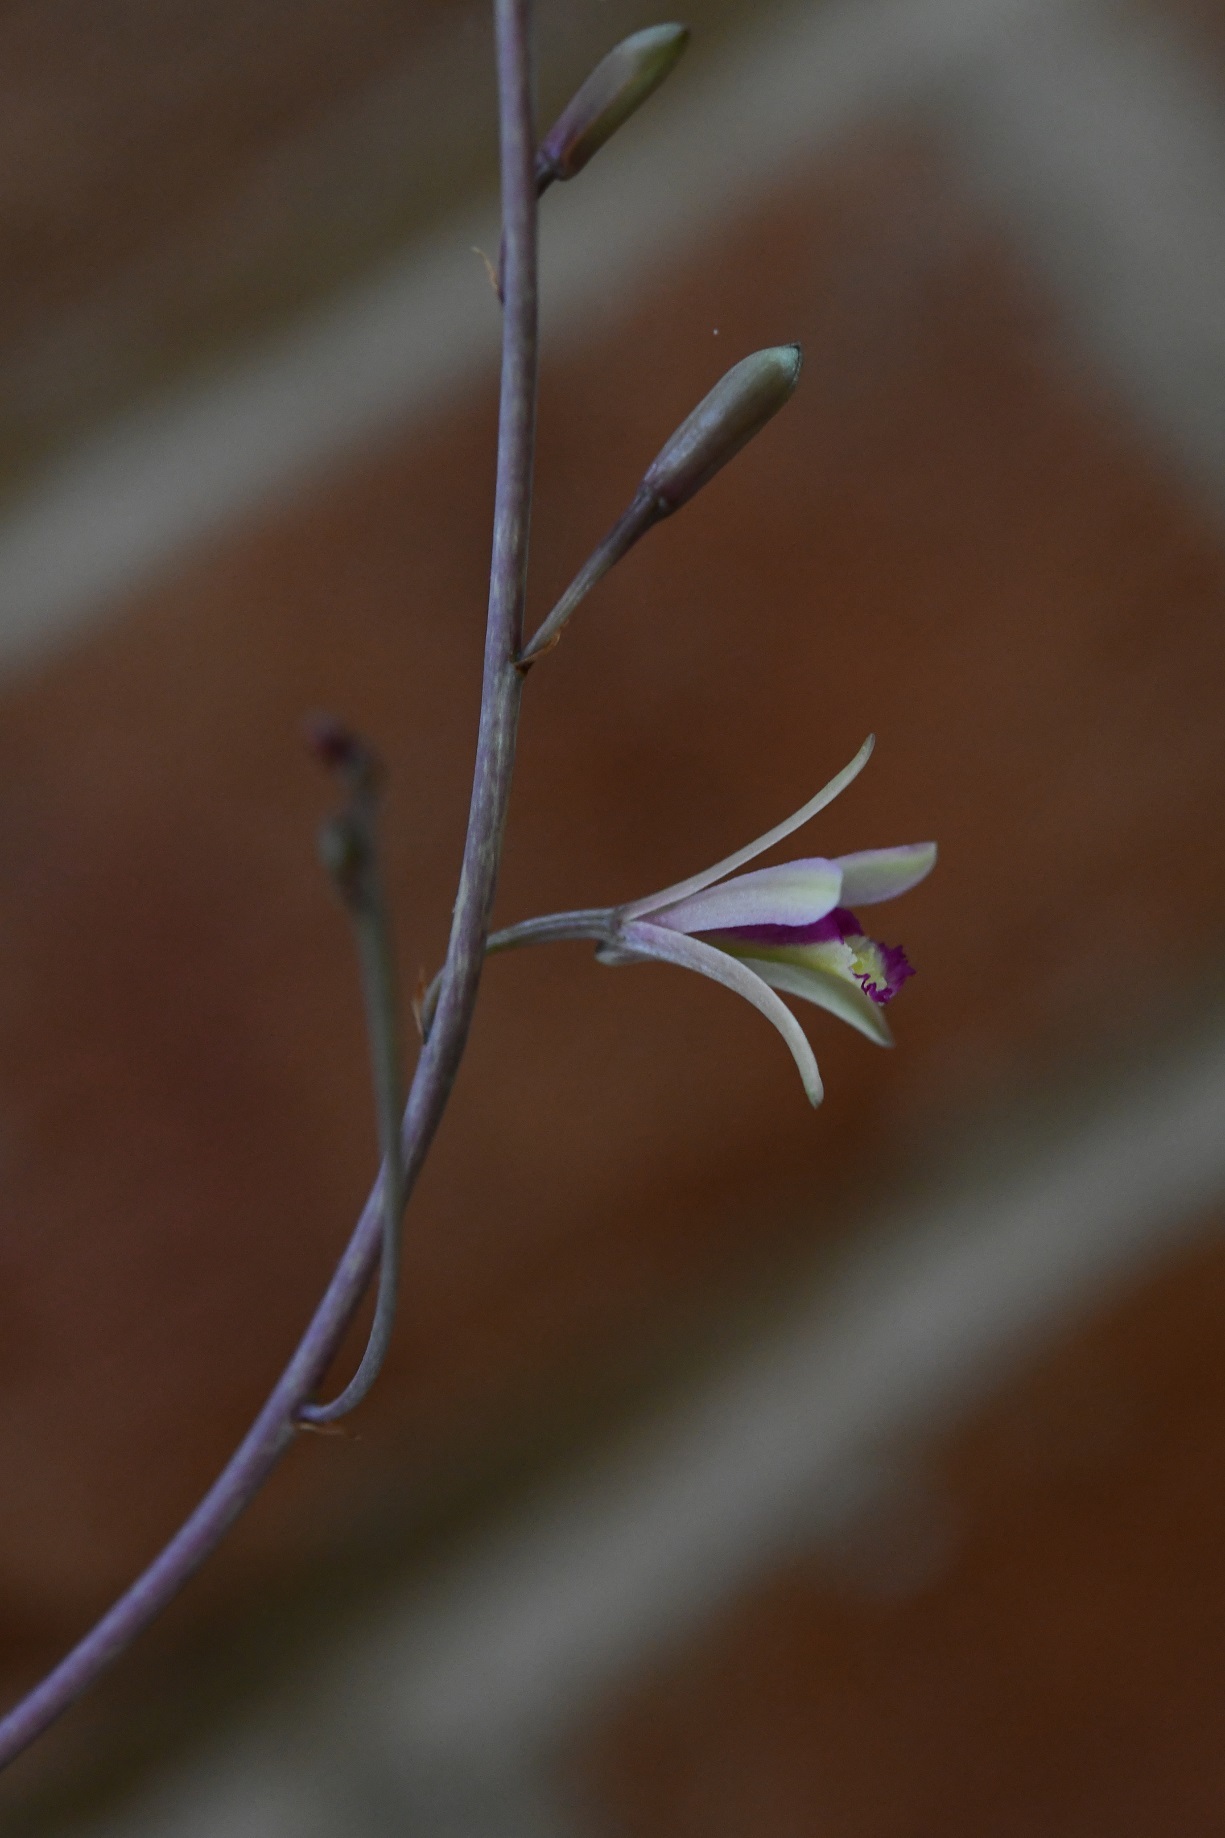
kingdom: Plantae
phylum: Tracheophyta
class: Liliopsida
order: Asparagales
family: Orchidaceae
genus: Bletia
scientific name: Bletia parkinsonii
